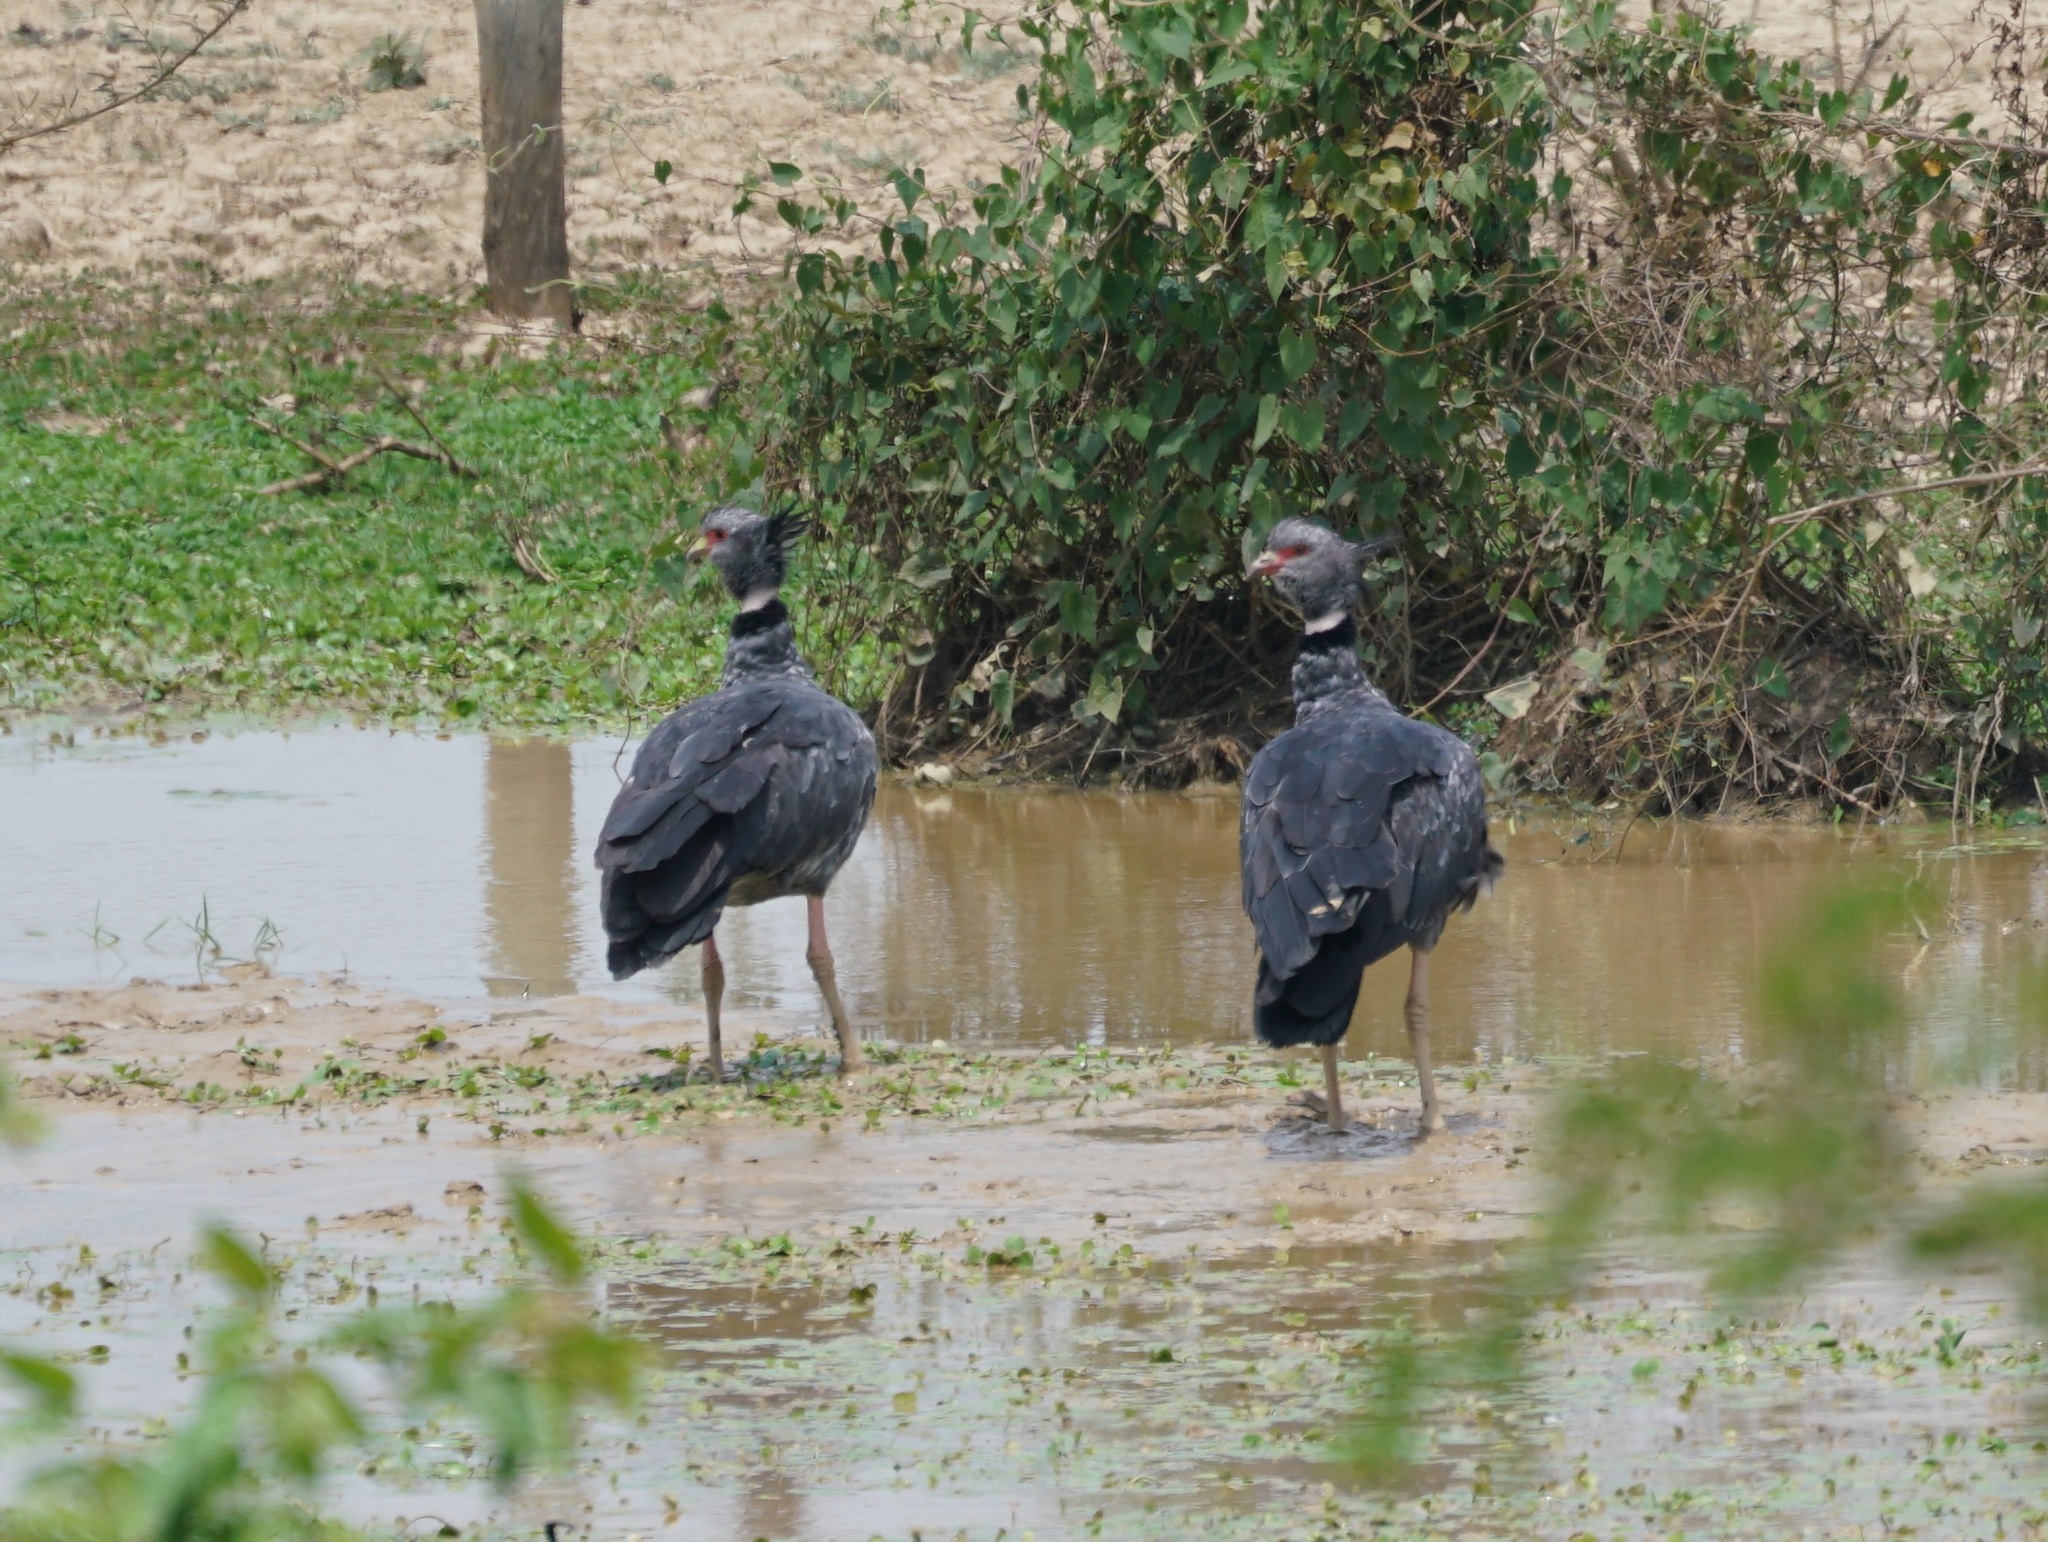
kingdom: Animalia
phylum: Chordata
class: Aves
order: Anseriformes
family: Anhimidae
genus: Chauna
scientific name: Chauna torquata
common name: Southern screamer
